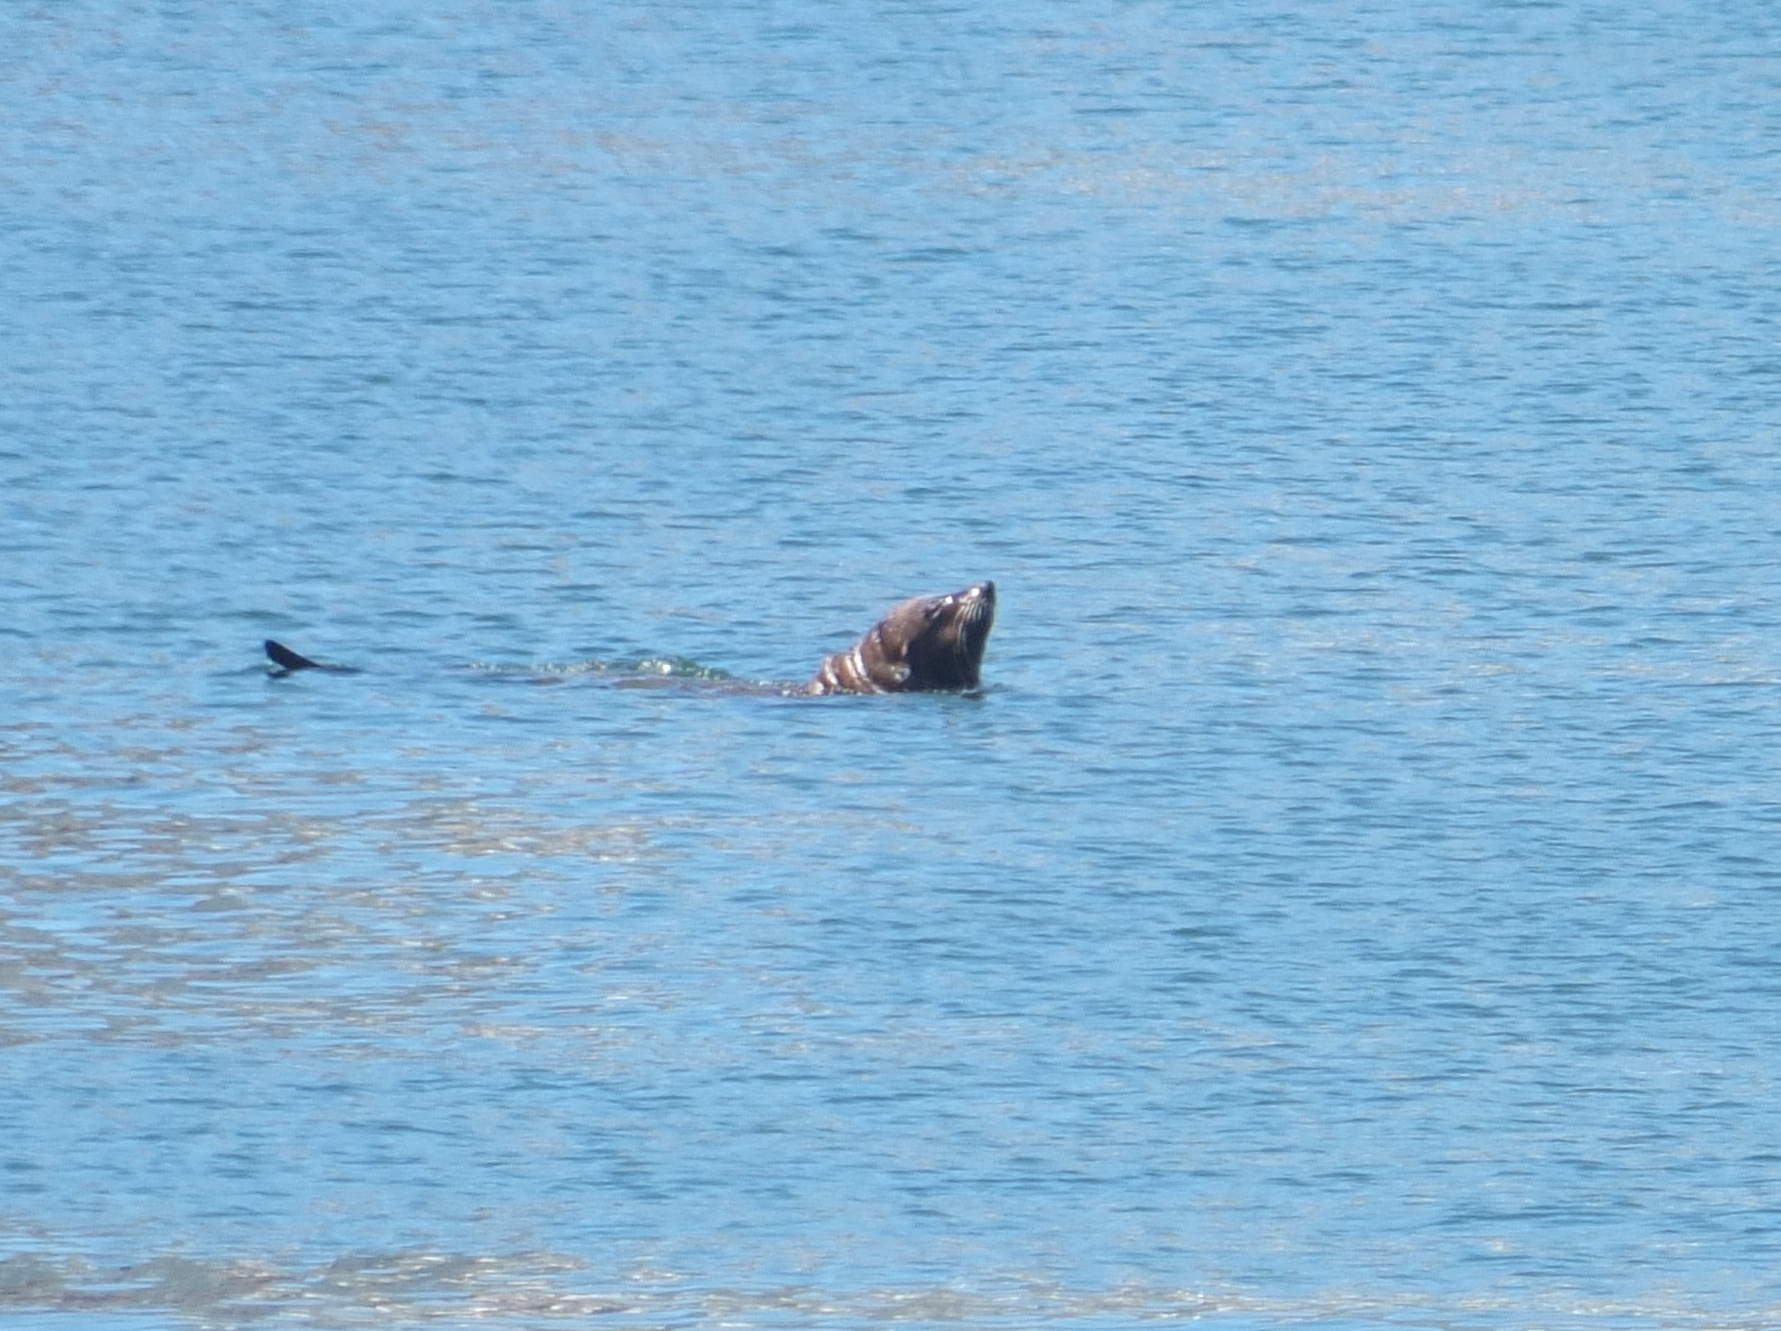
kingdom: Animalia
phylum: Chordata
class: Mammalia
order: Carnivora
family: Otariidae
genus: Arctocephalus
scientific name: Arctocephalus pusillus
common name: Brown fur seal
